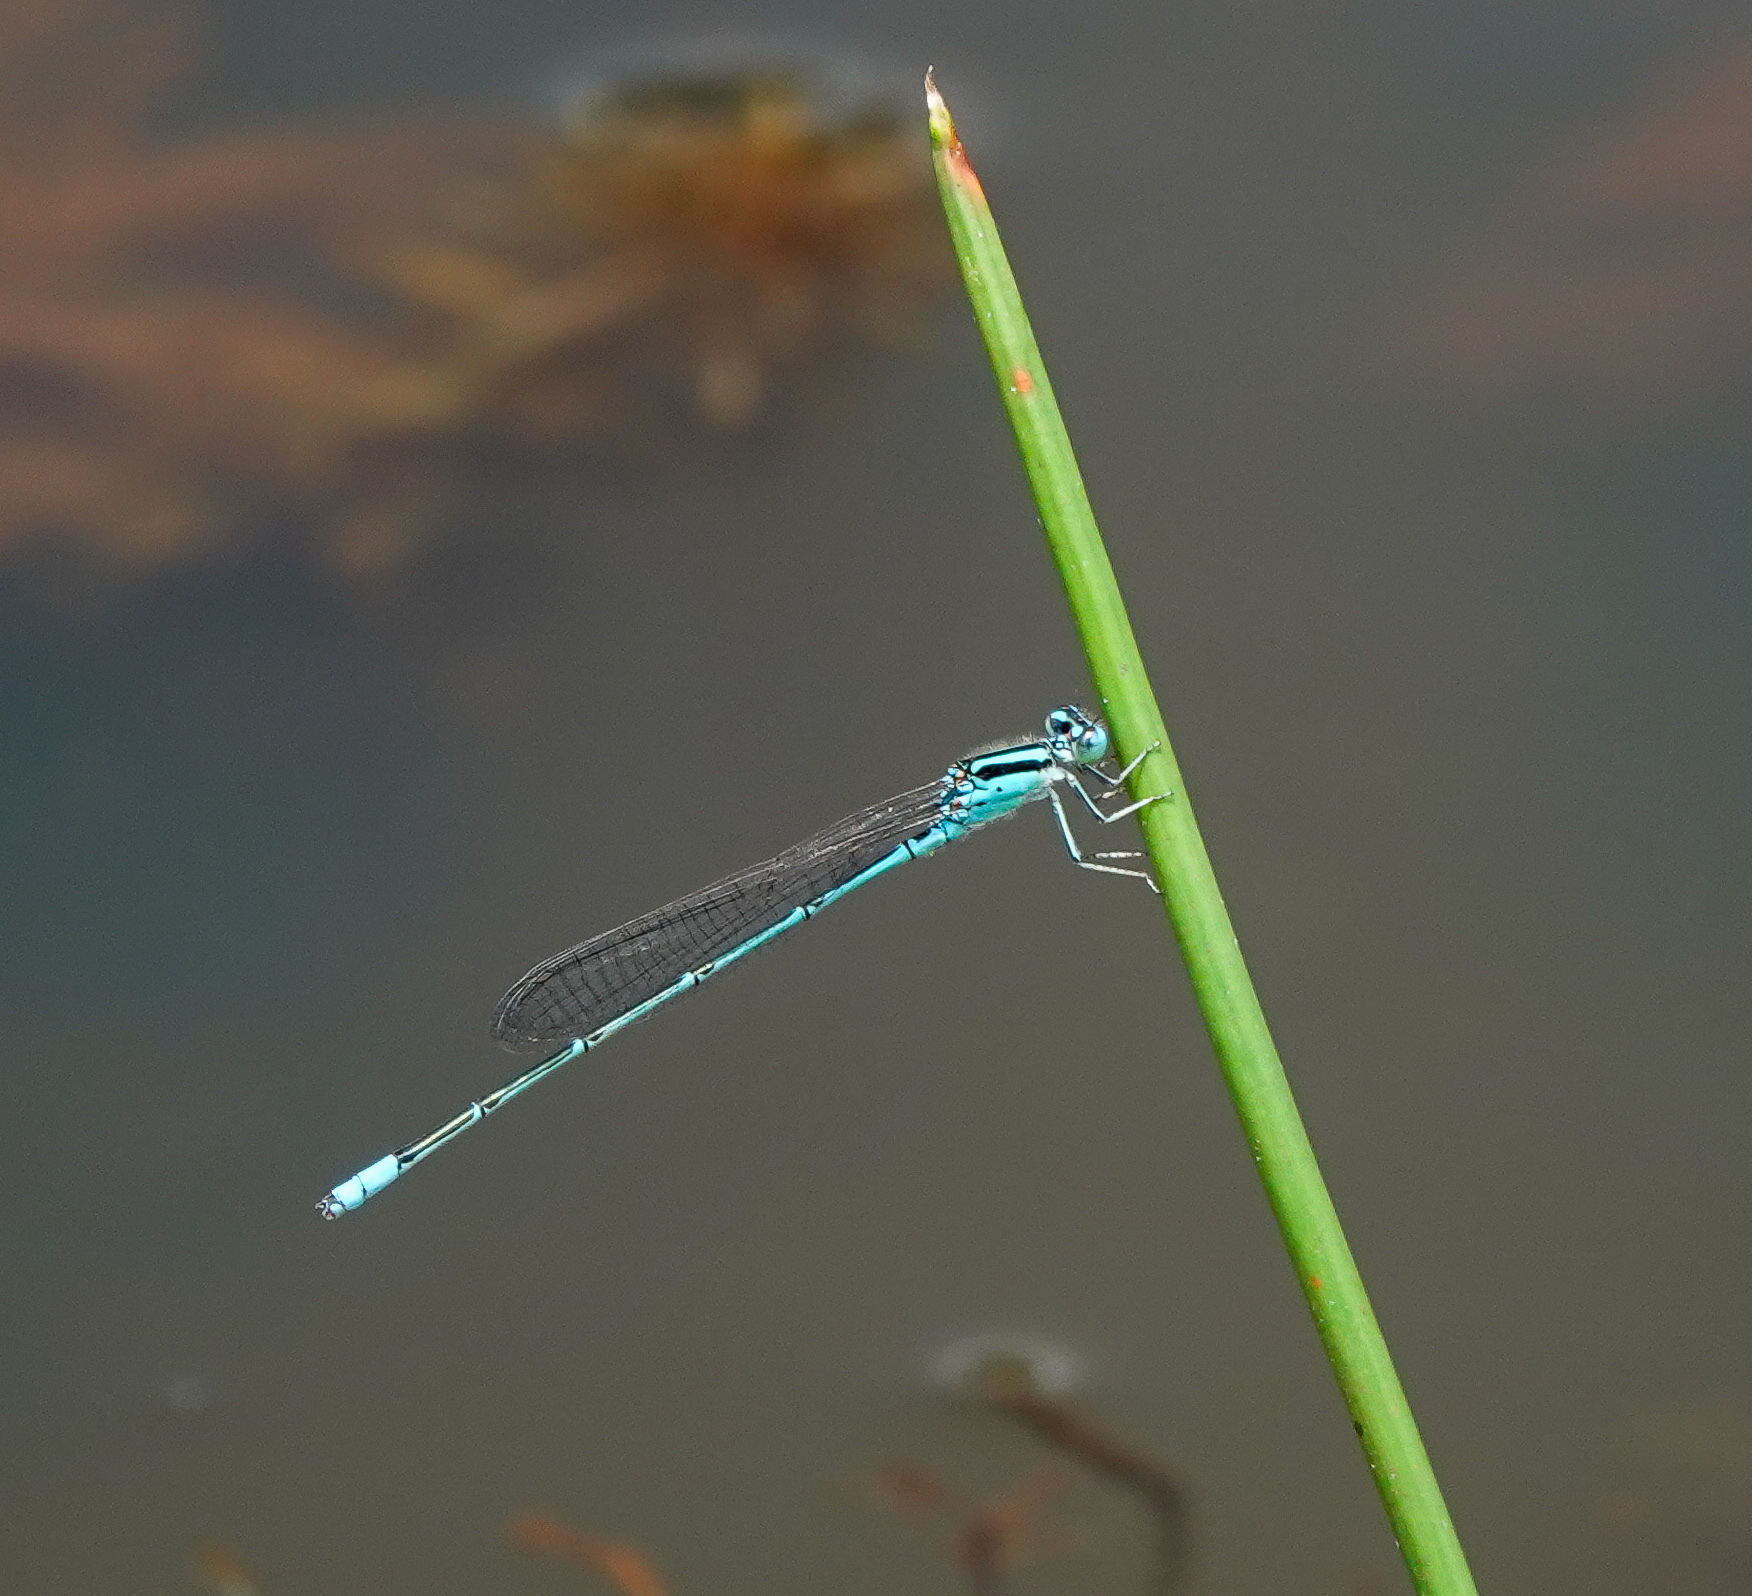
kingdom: Animalia
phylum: Arthropoda
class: Insecta
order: Odonata
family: Coenagrionidae
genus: Pseudagrion
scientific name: Pseudagrion australasiae
